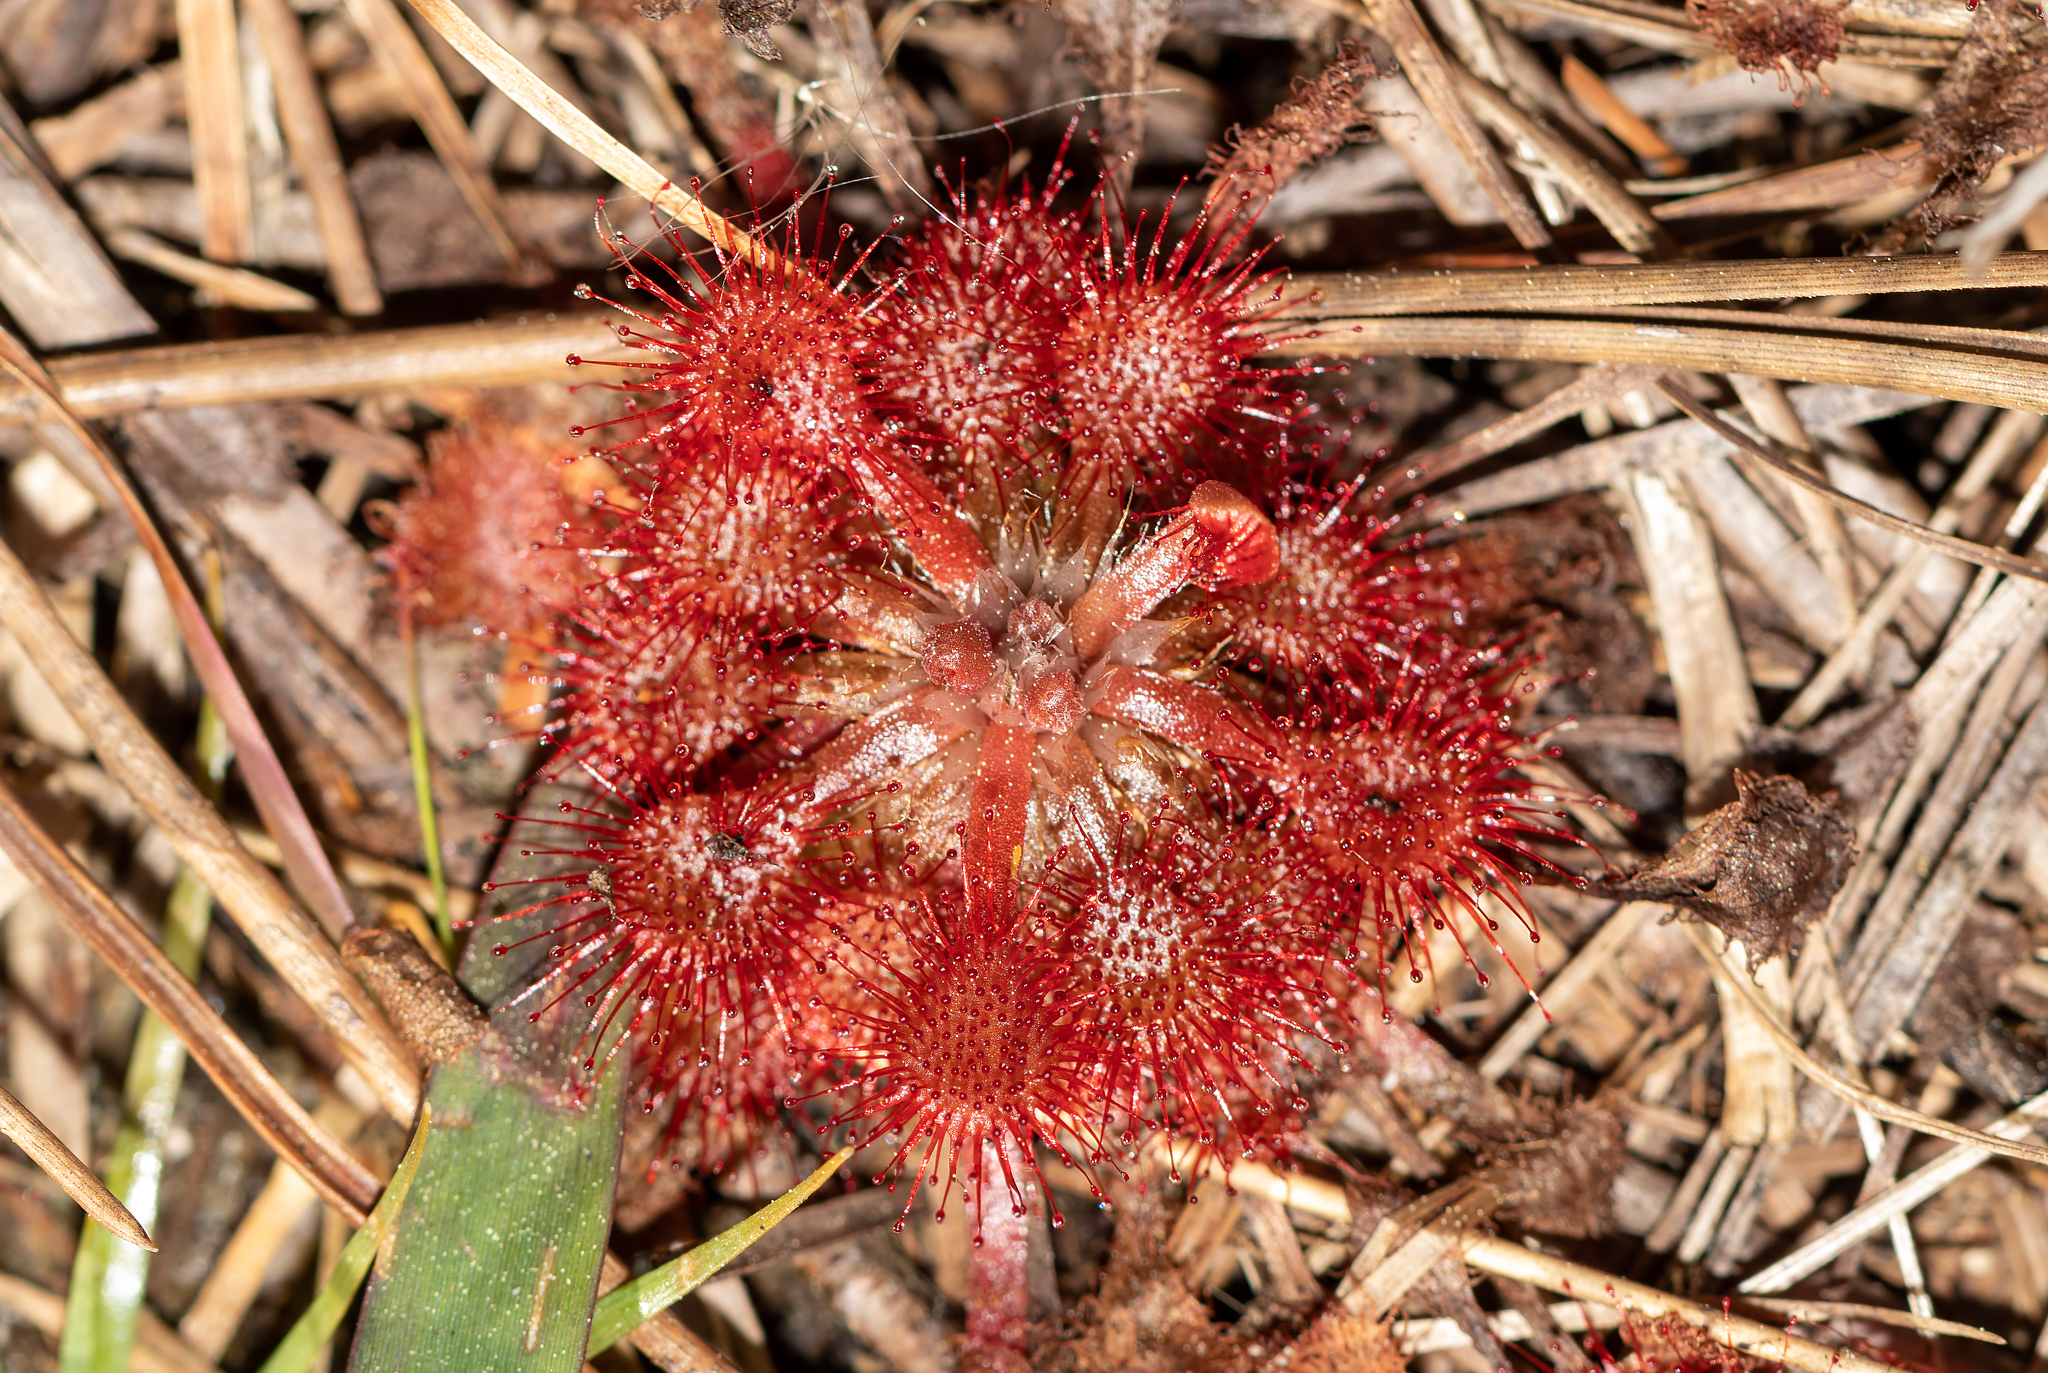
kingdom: Plantae
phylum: Tracheophyta
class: Magnoliopsida
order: Caryophyllales
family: Droseraceae
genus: Drosera
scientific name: Drosera capillaris
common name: Pink sundew
